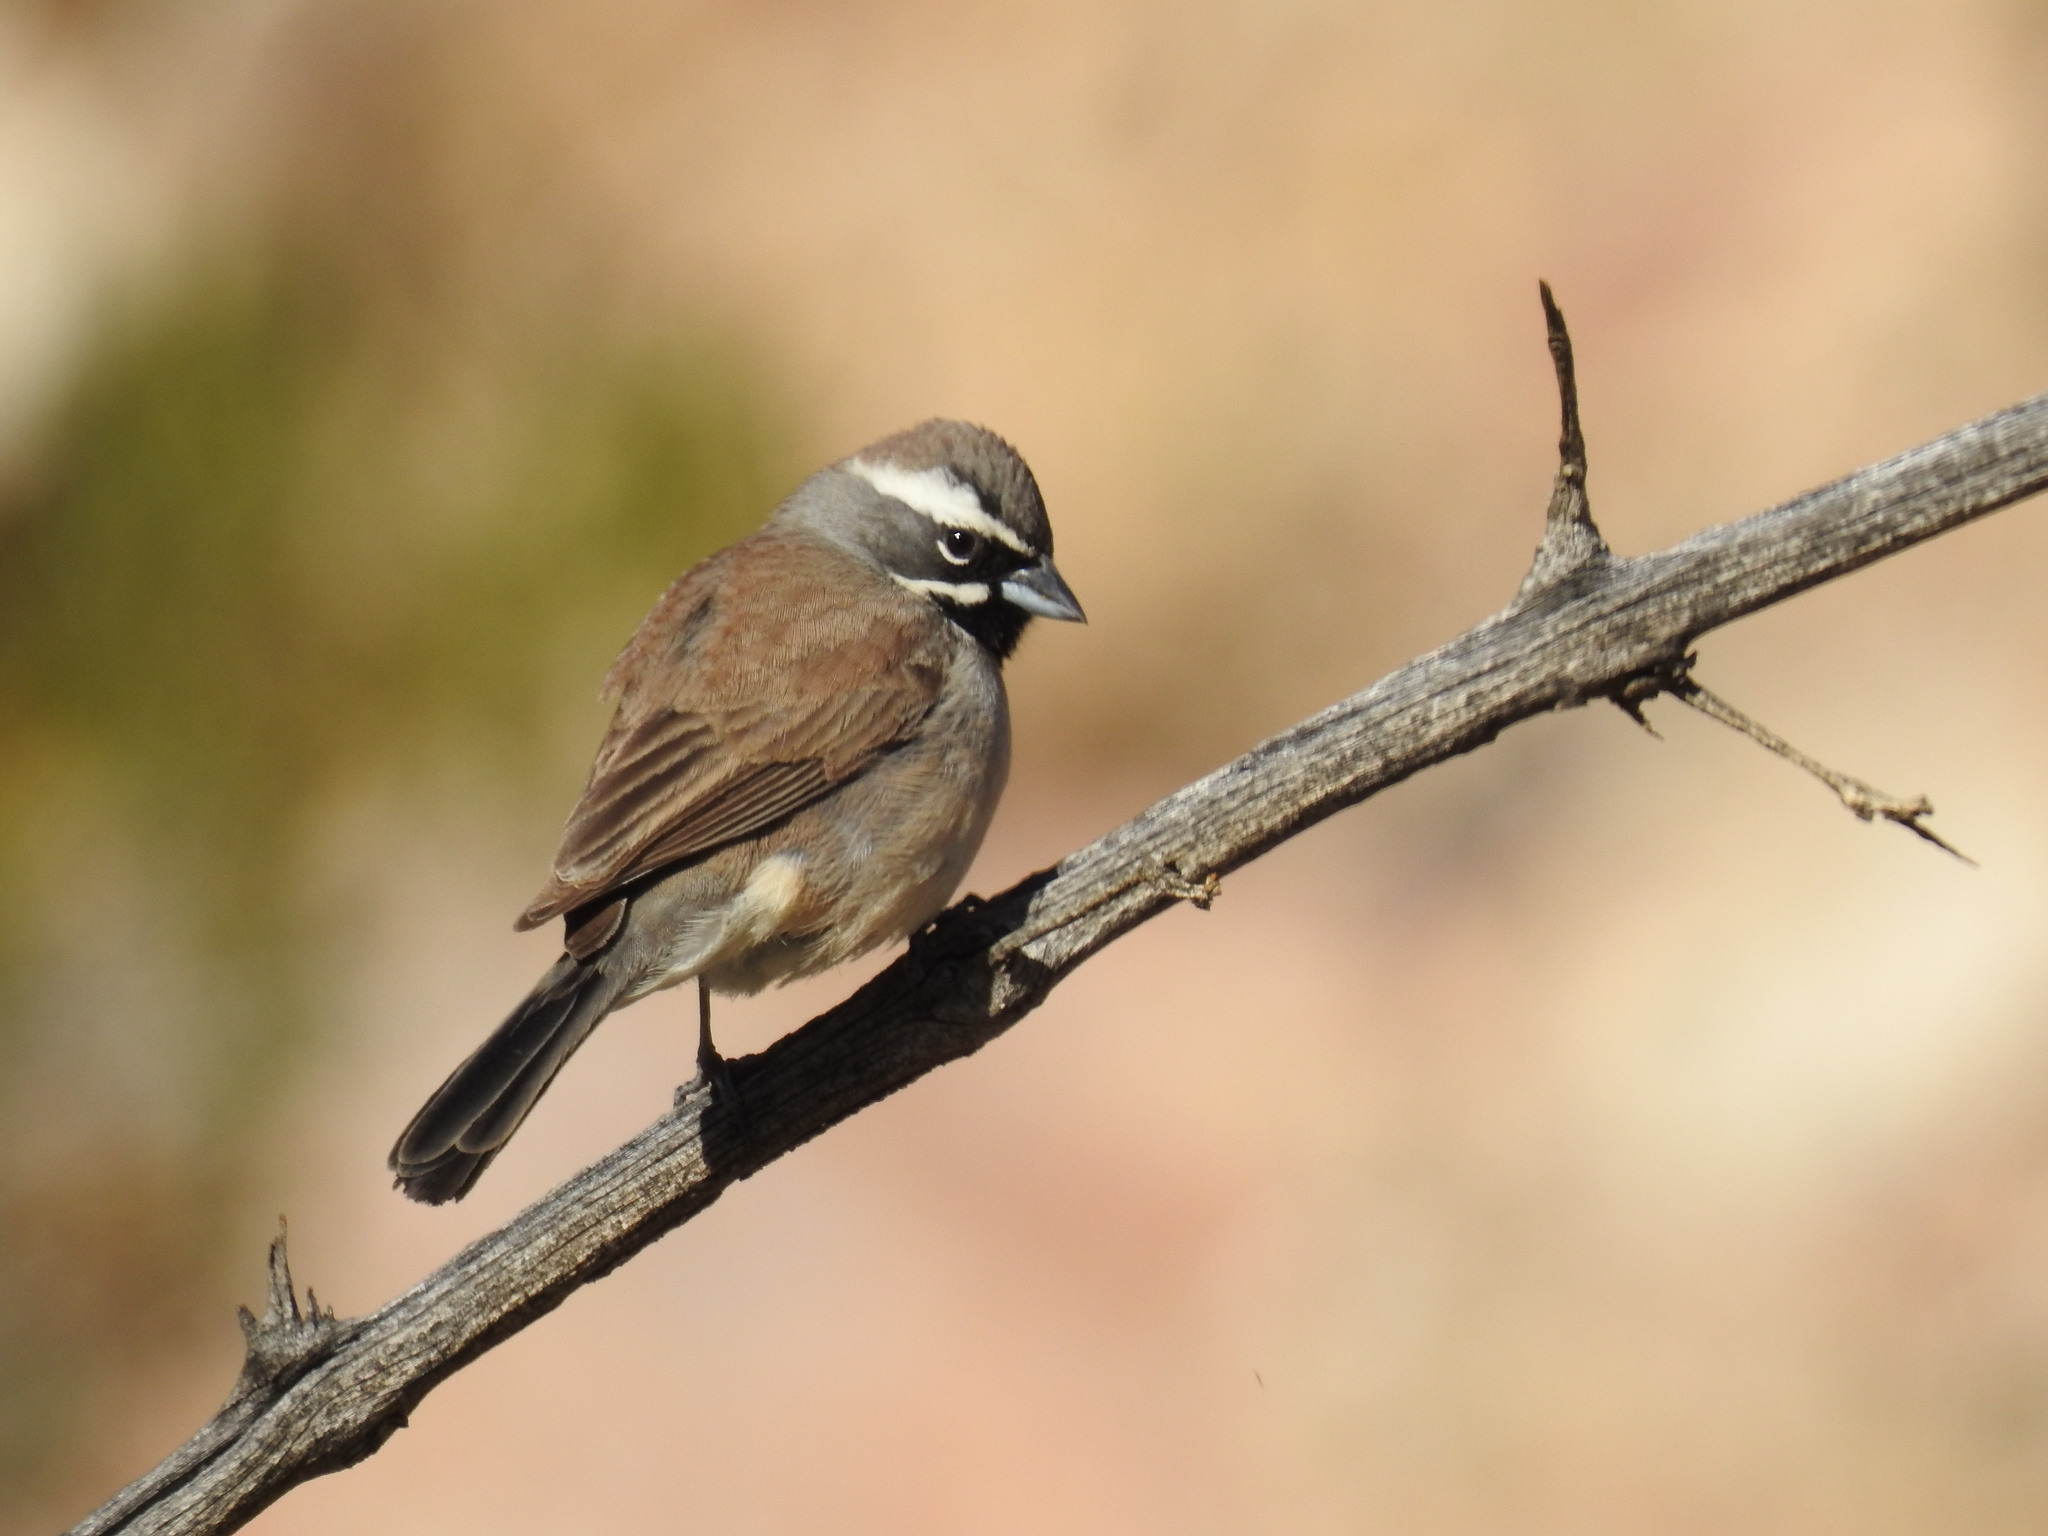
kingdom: Animalia
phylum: Chordata
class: Aves
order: Passeriformes
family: Passerellidae
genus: Amphispiza
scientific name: Amphispiza bilineata
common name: Black-throated sparrow
